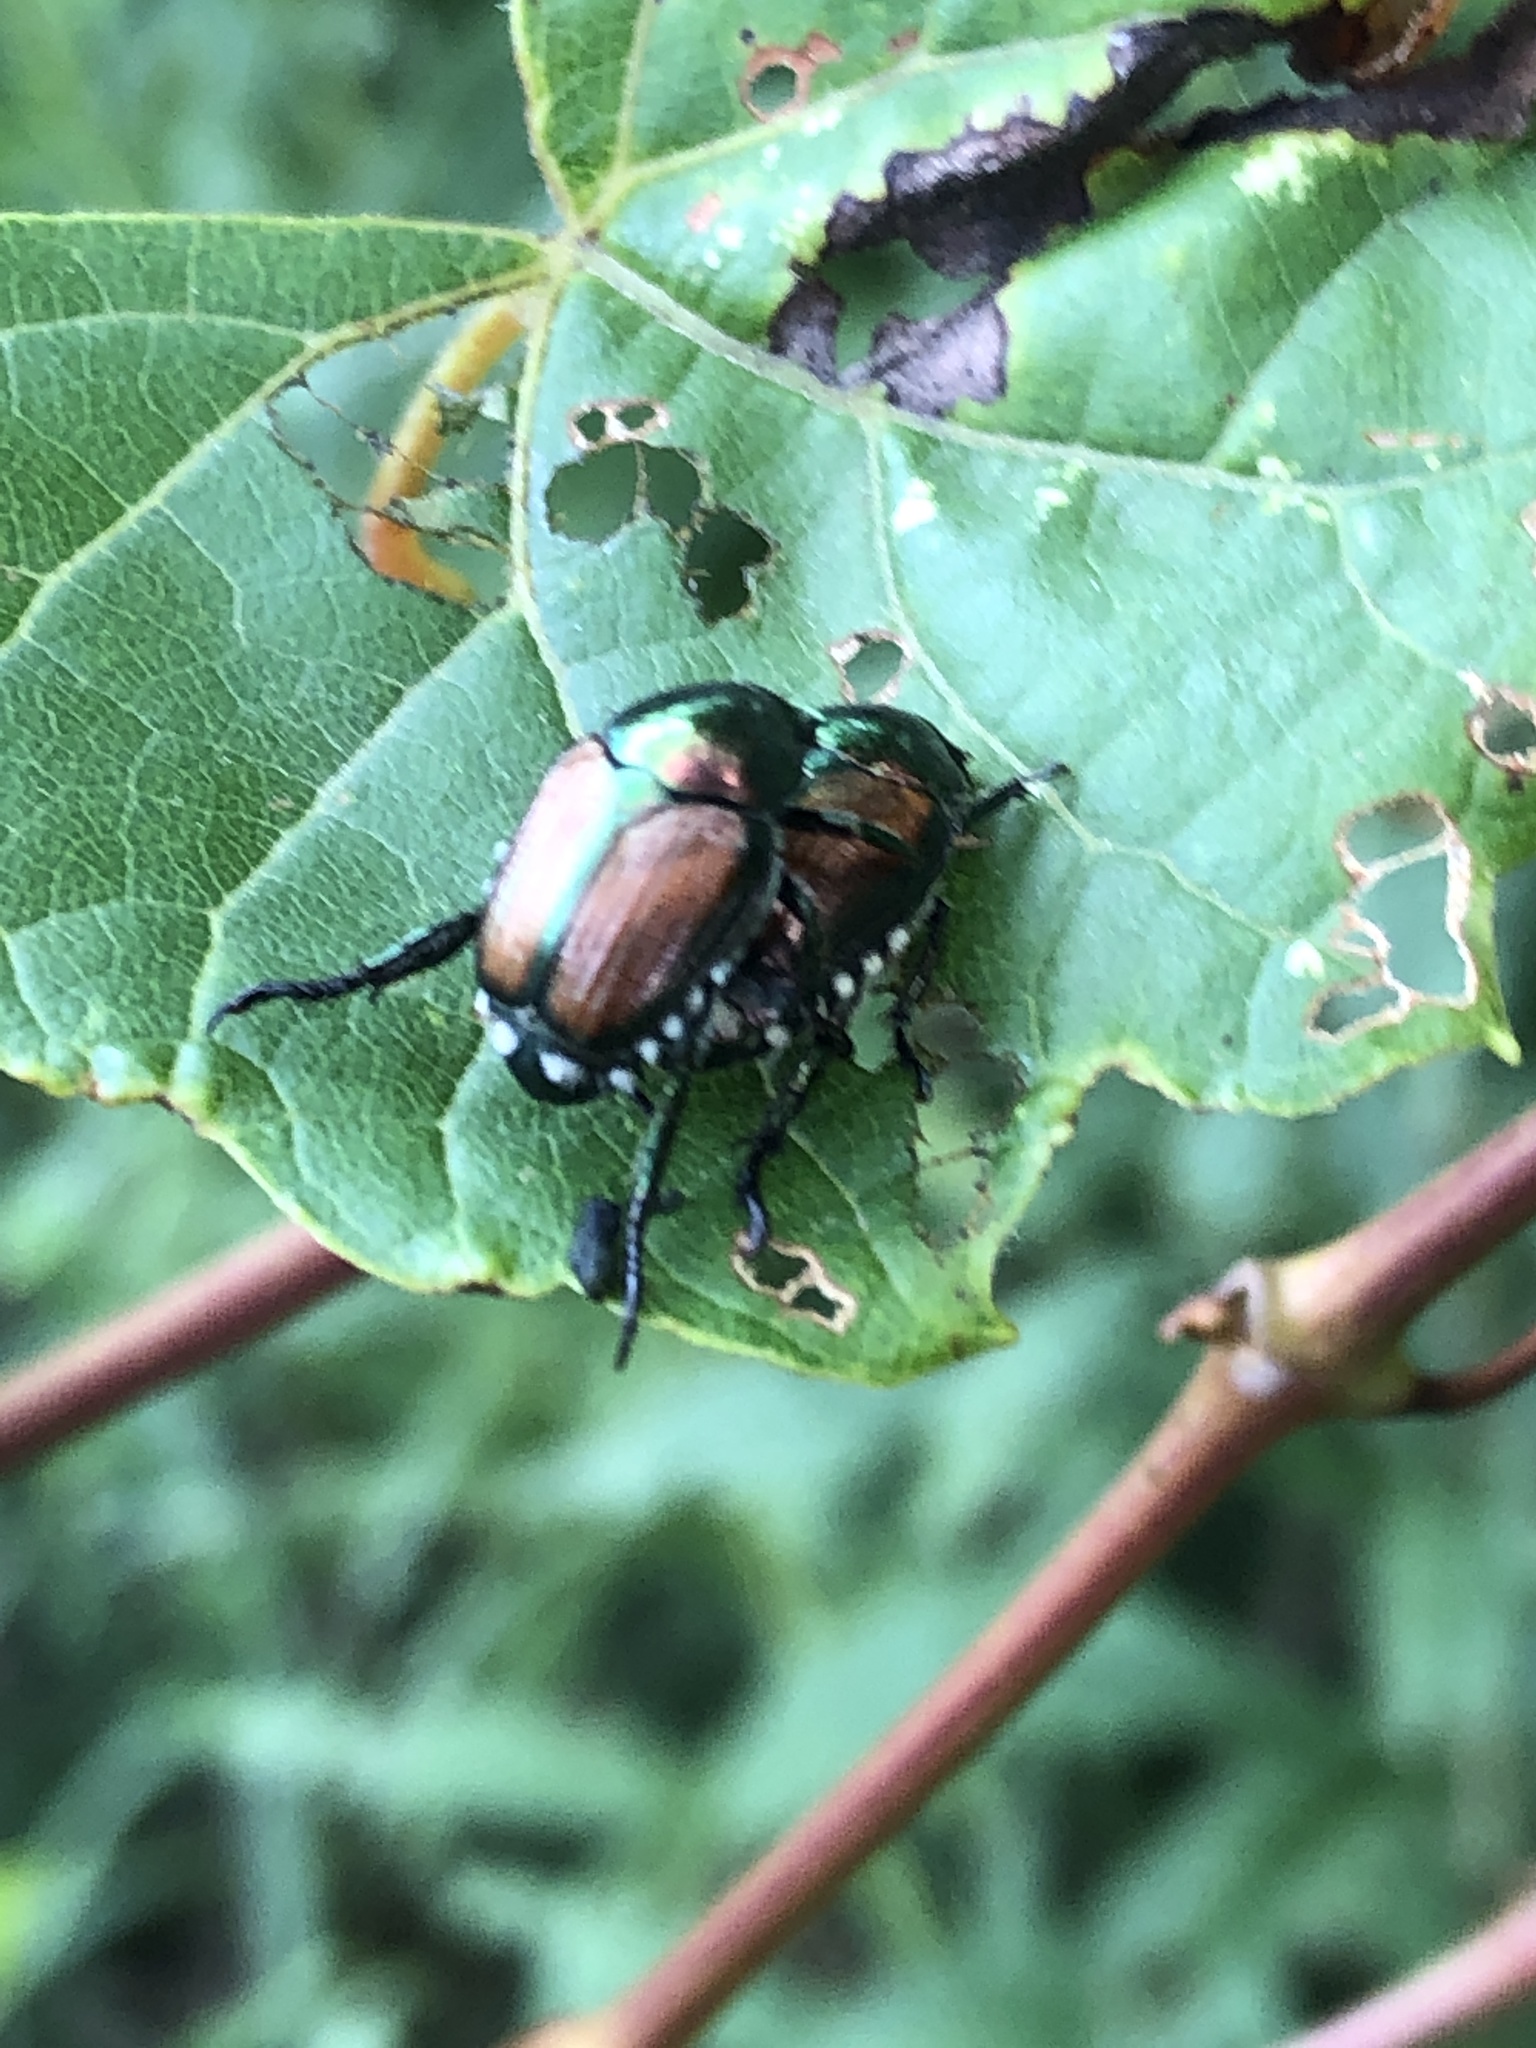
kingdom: Animalia
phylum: Arthropoda
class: Insecta
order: Coleoptera
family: Scarabaeidae
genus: Popillia
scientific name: Popillia japonica
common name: Japanese beetle
